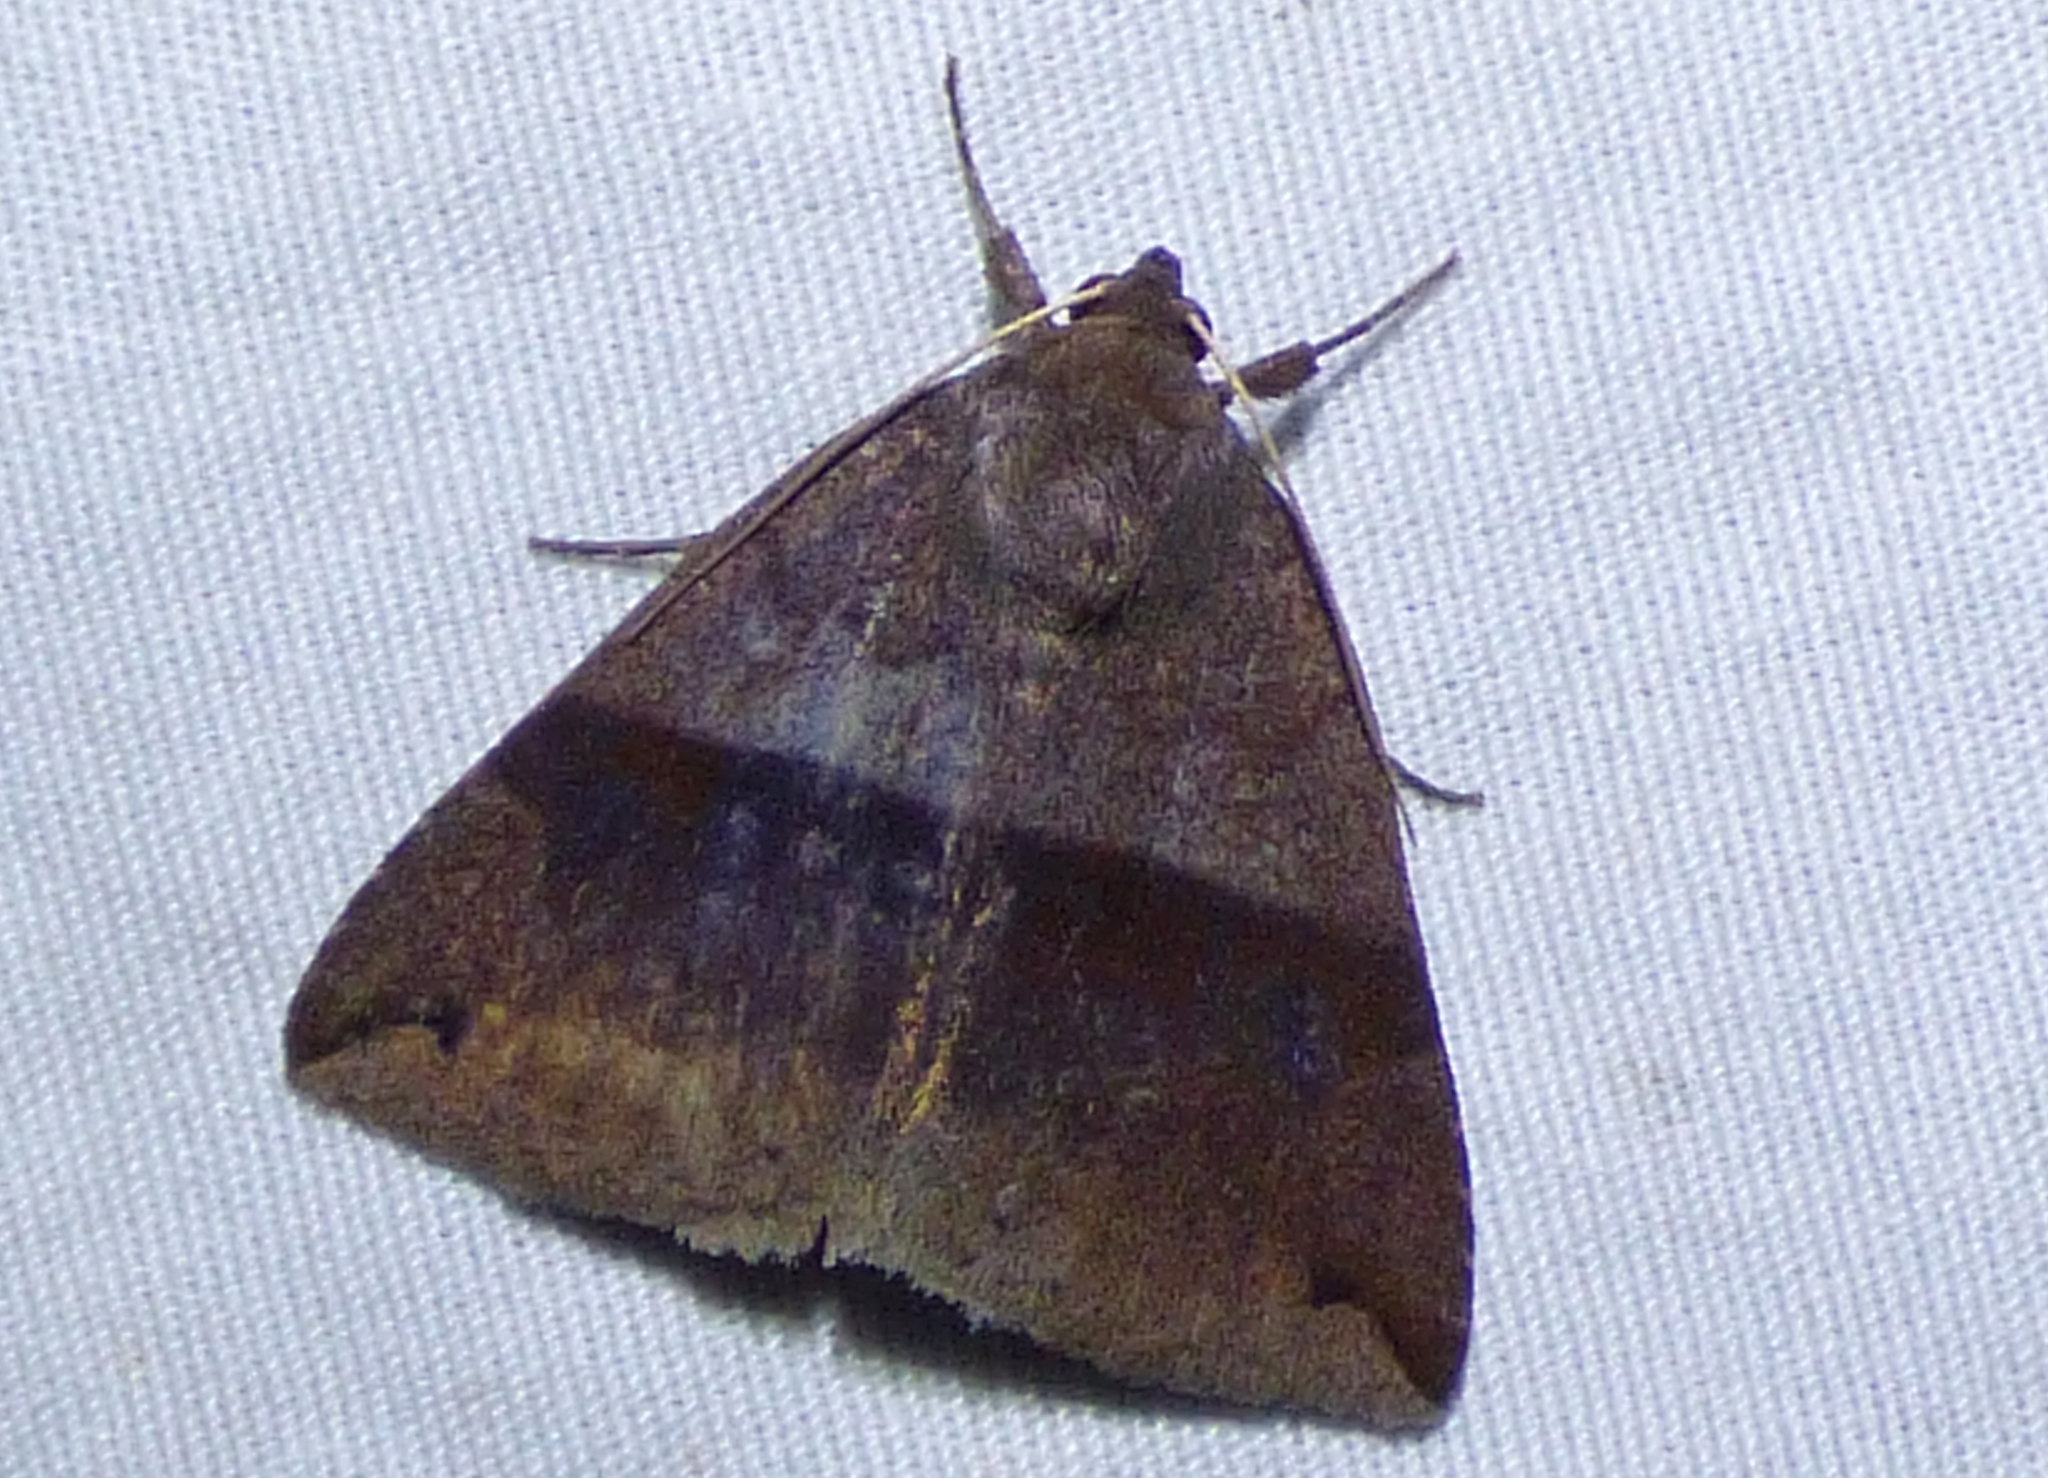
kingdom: Animalia
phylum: Arthropoda
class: Insecta
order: Lepidoptera
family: Erebidae
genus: Gondysia
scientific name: Gondysia similis
